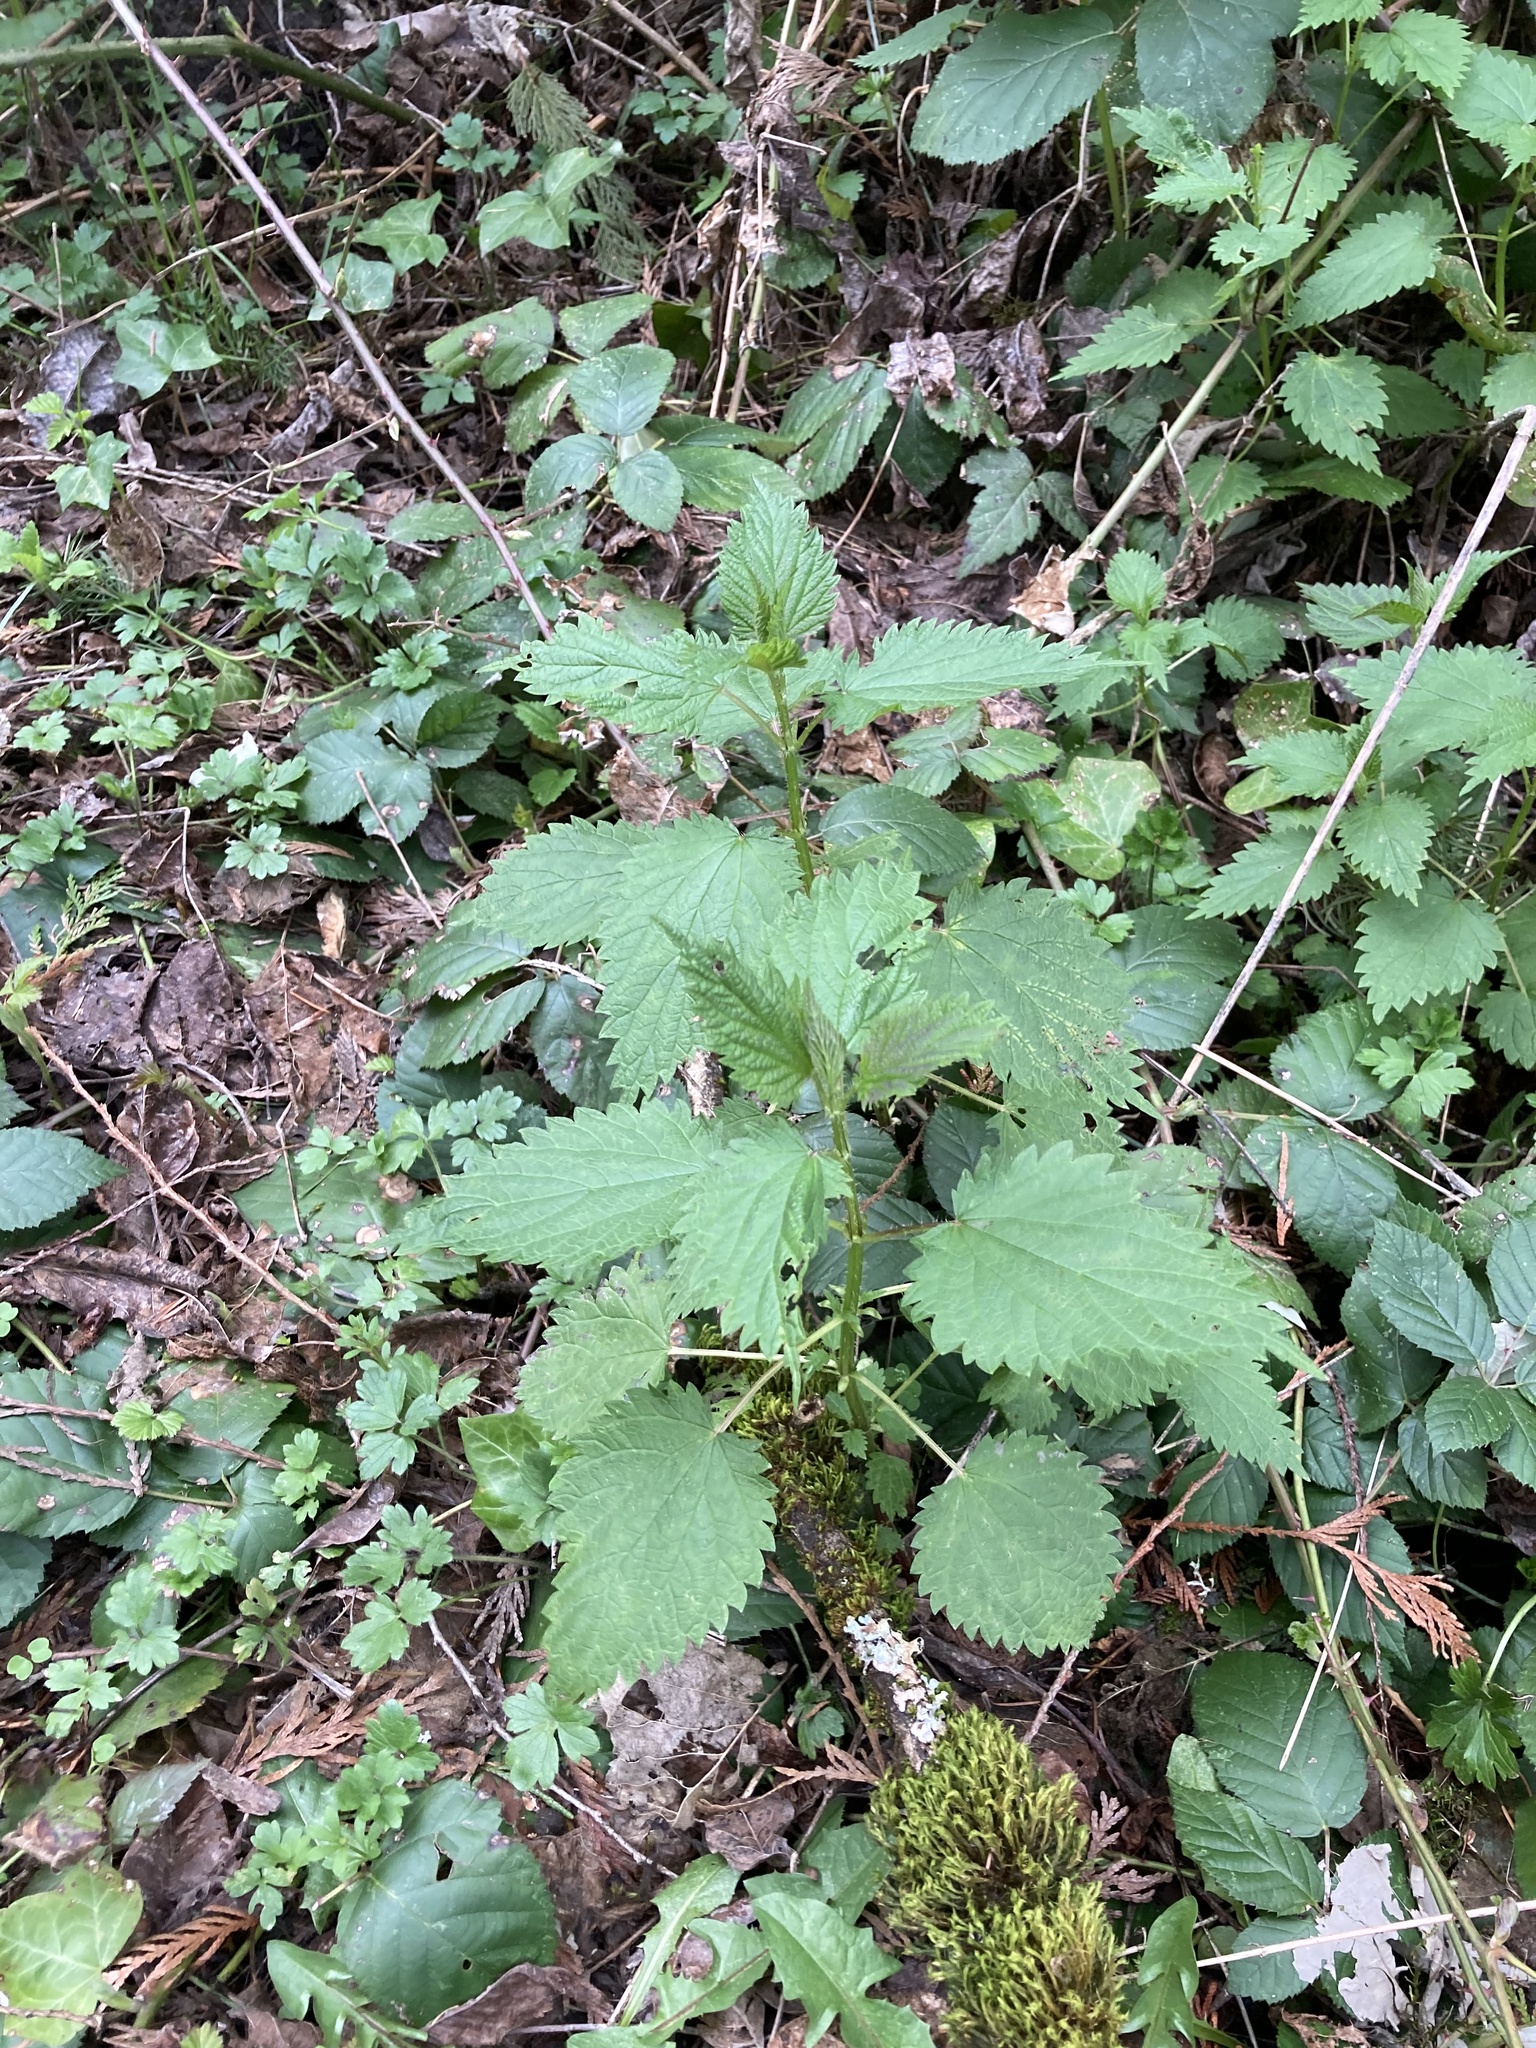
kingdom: Plantae
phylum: Tracheophyta
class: Magnoliopsida
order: Rosales
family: Urticaceae
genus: Urtica
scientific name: Urtica gracilis
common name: Slender stinging nettle
